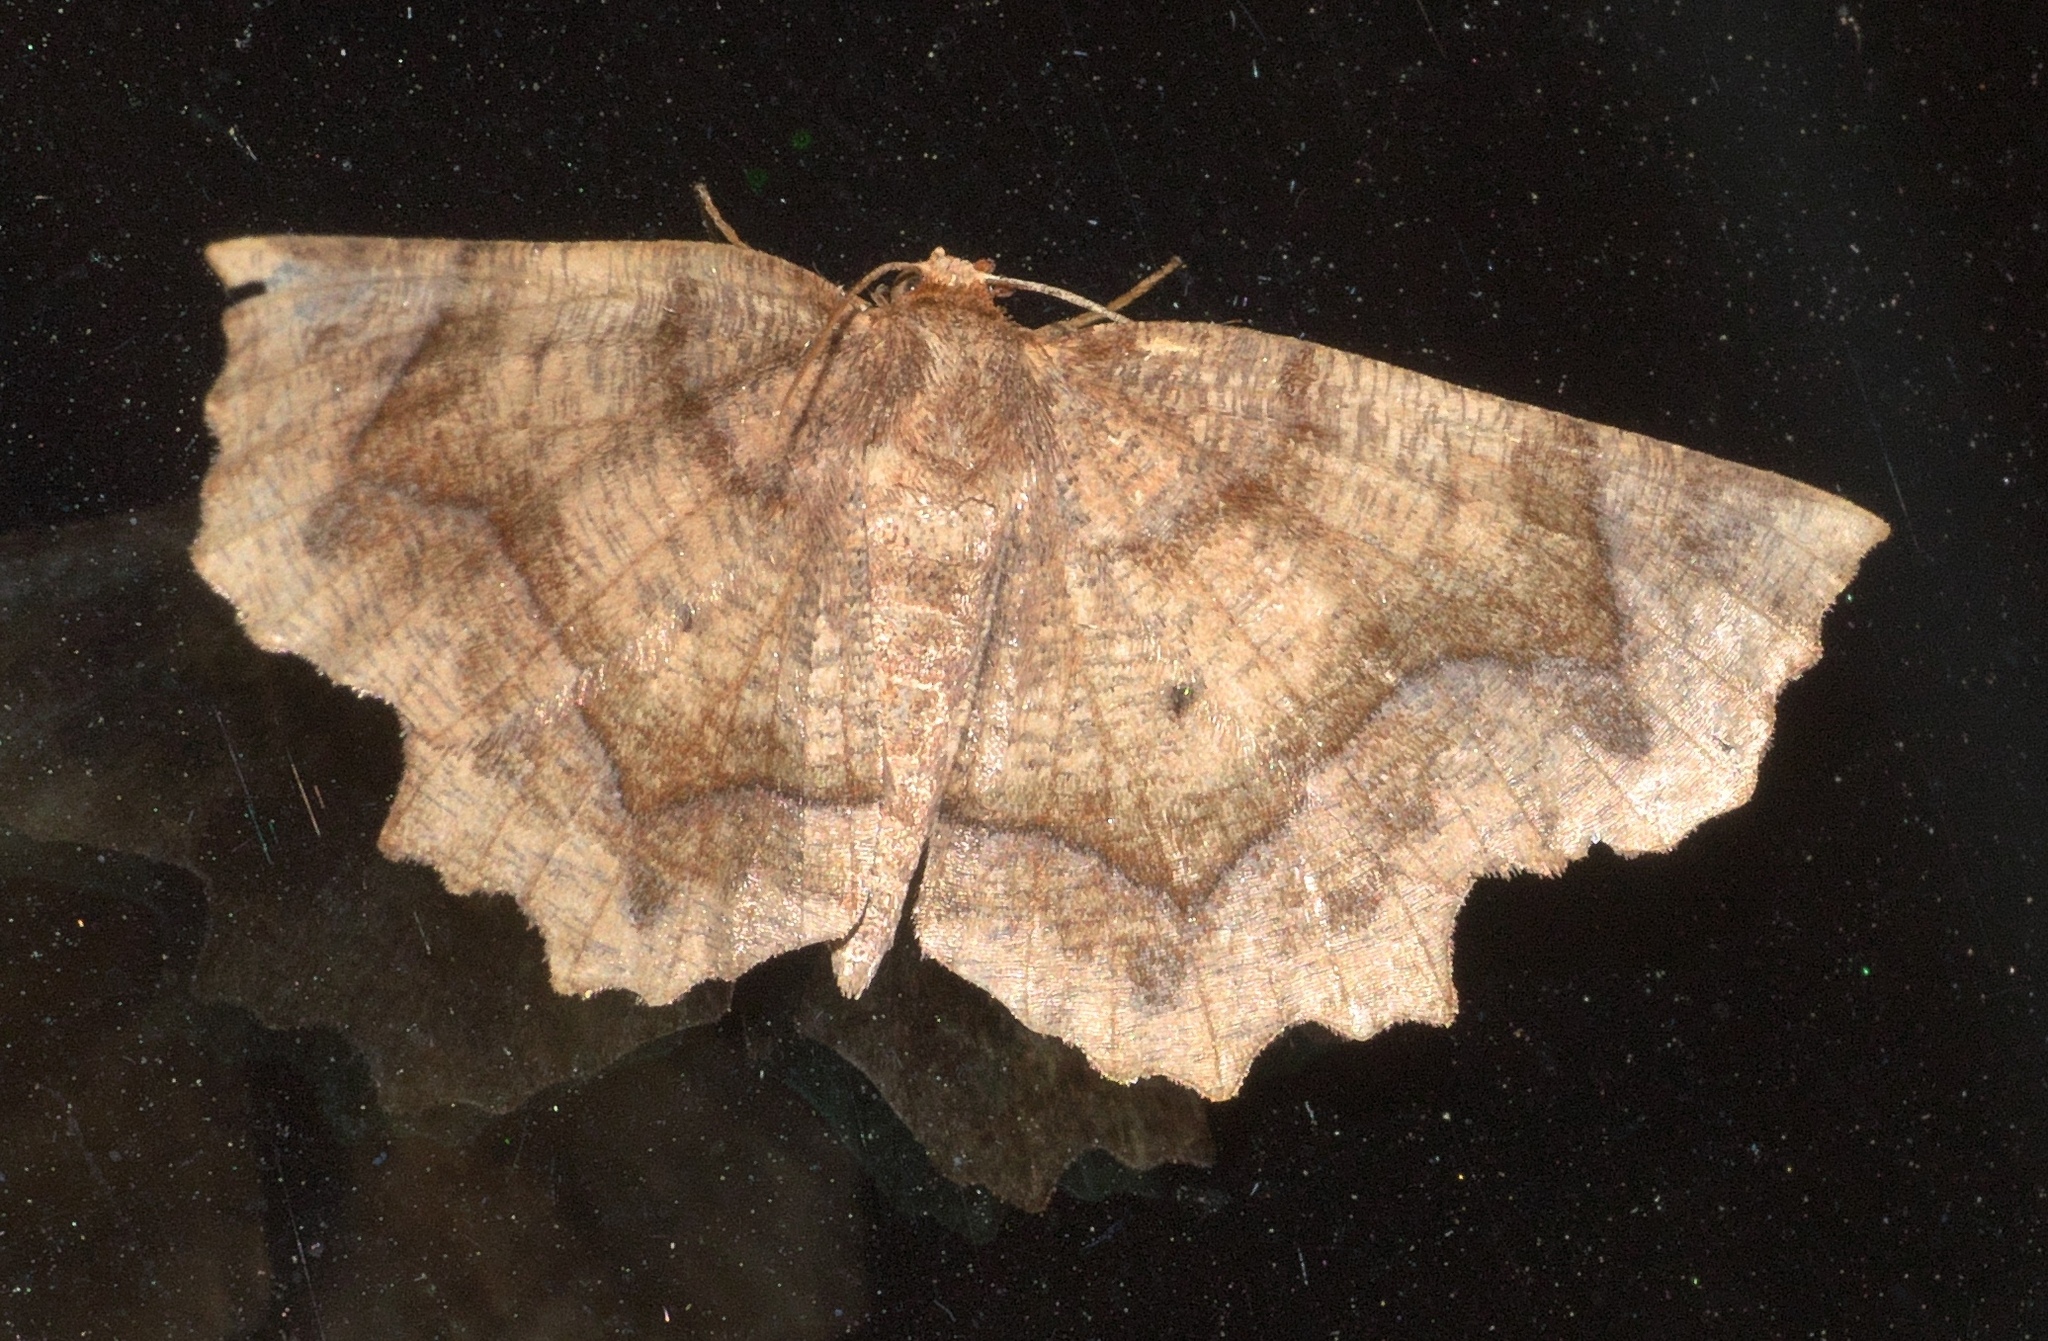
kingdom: Animalia
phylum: Arthropoda
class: Insecta
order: Lepidoptera
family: Geometridae
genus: Metarranthis
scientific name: Metarranthis hypochraria
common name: Common metarranthis
